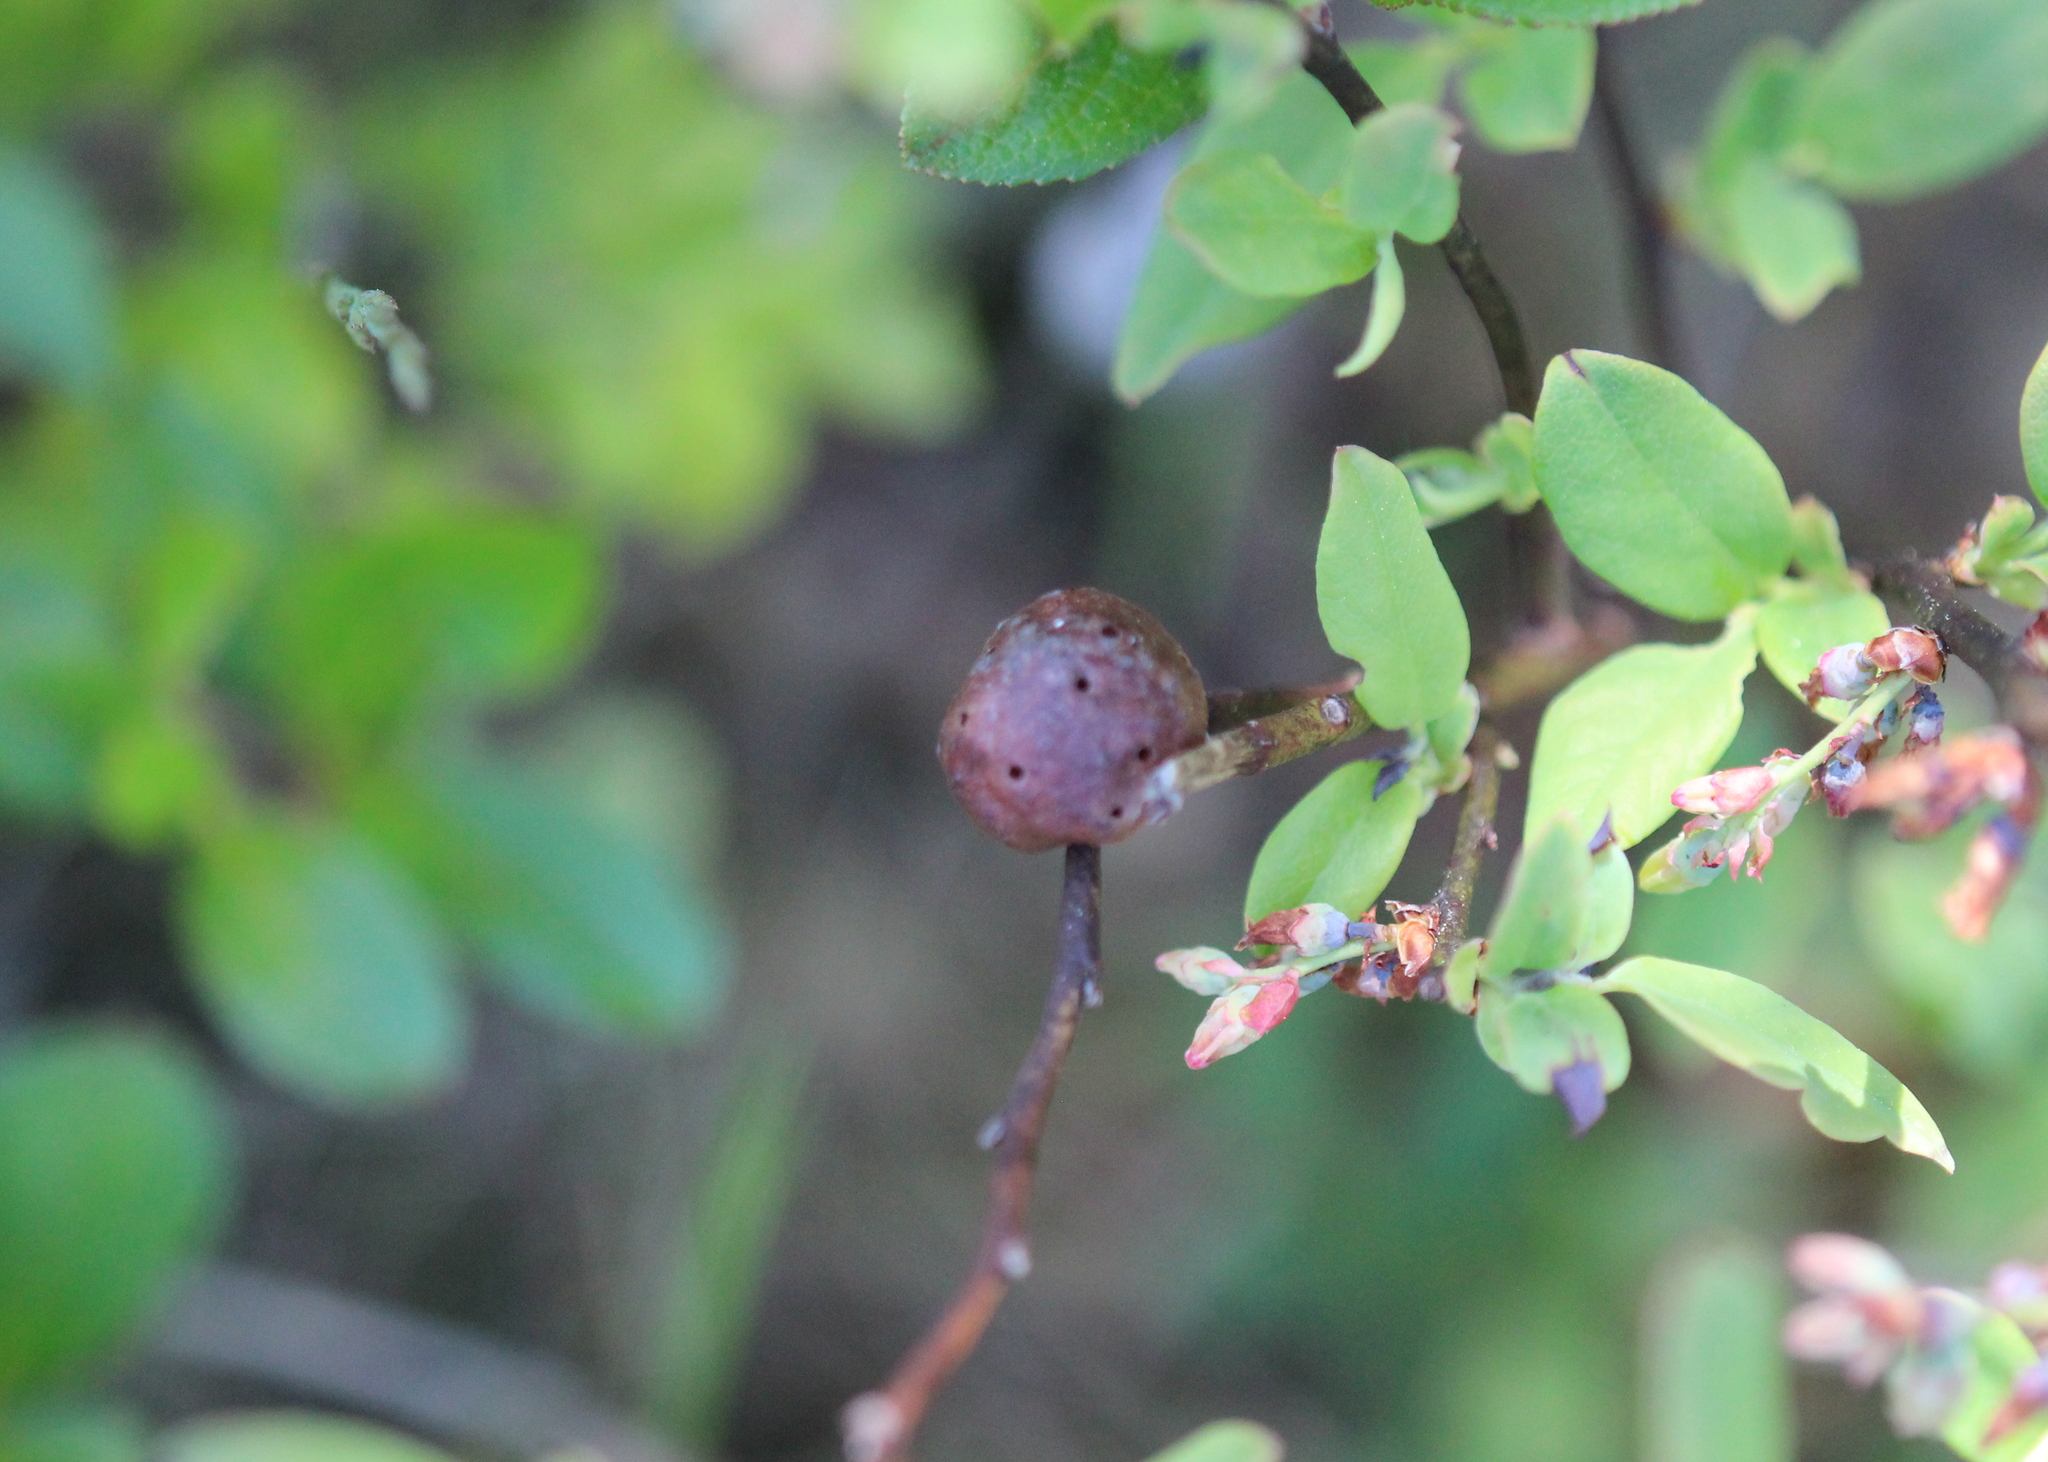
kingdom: Animalia
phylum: Arthropoda
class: Insecta
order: Hymenoptera
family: Pteromalidae
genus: Hemadas
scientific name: Hemadas nubilipennis
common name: Blueberry stem gall wasp
